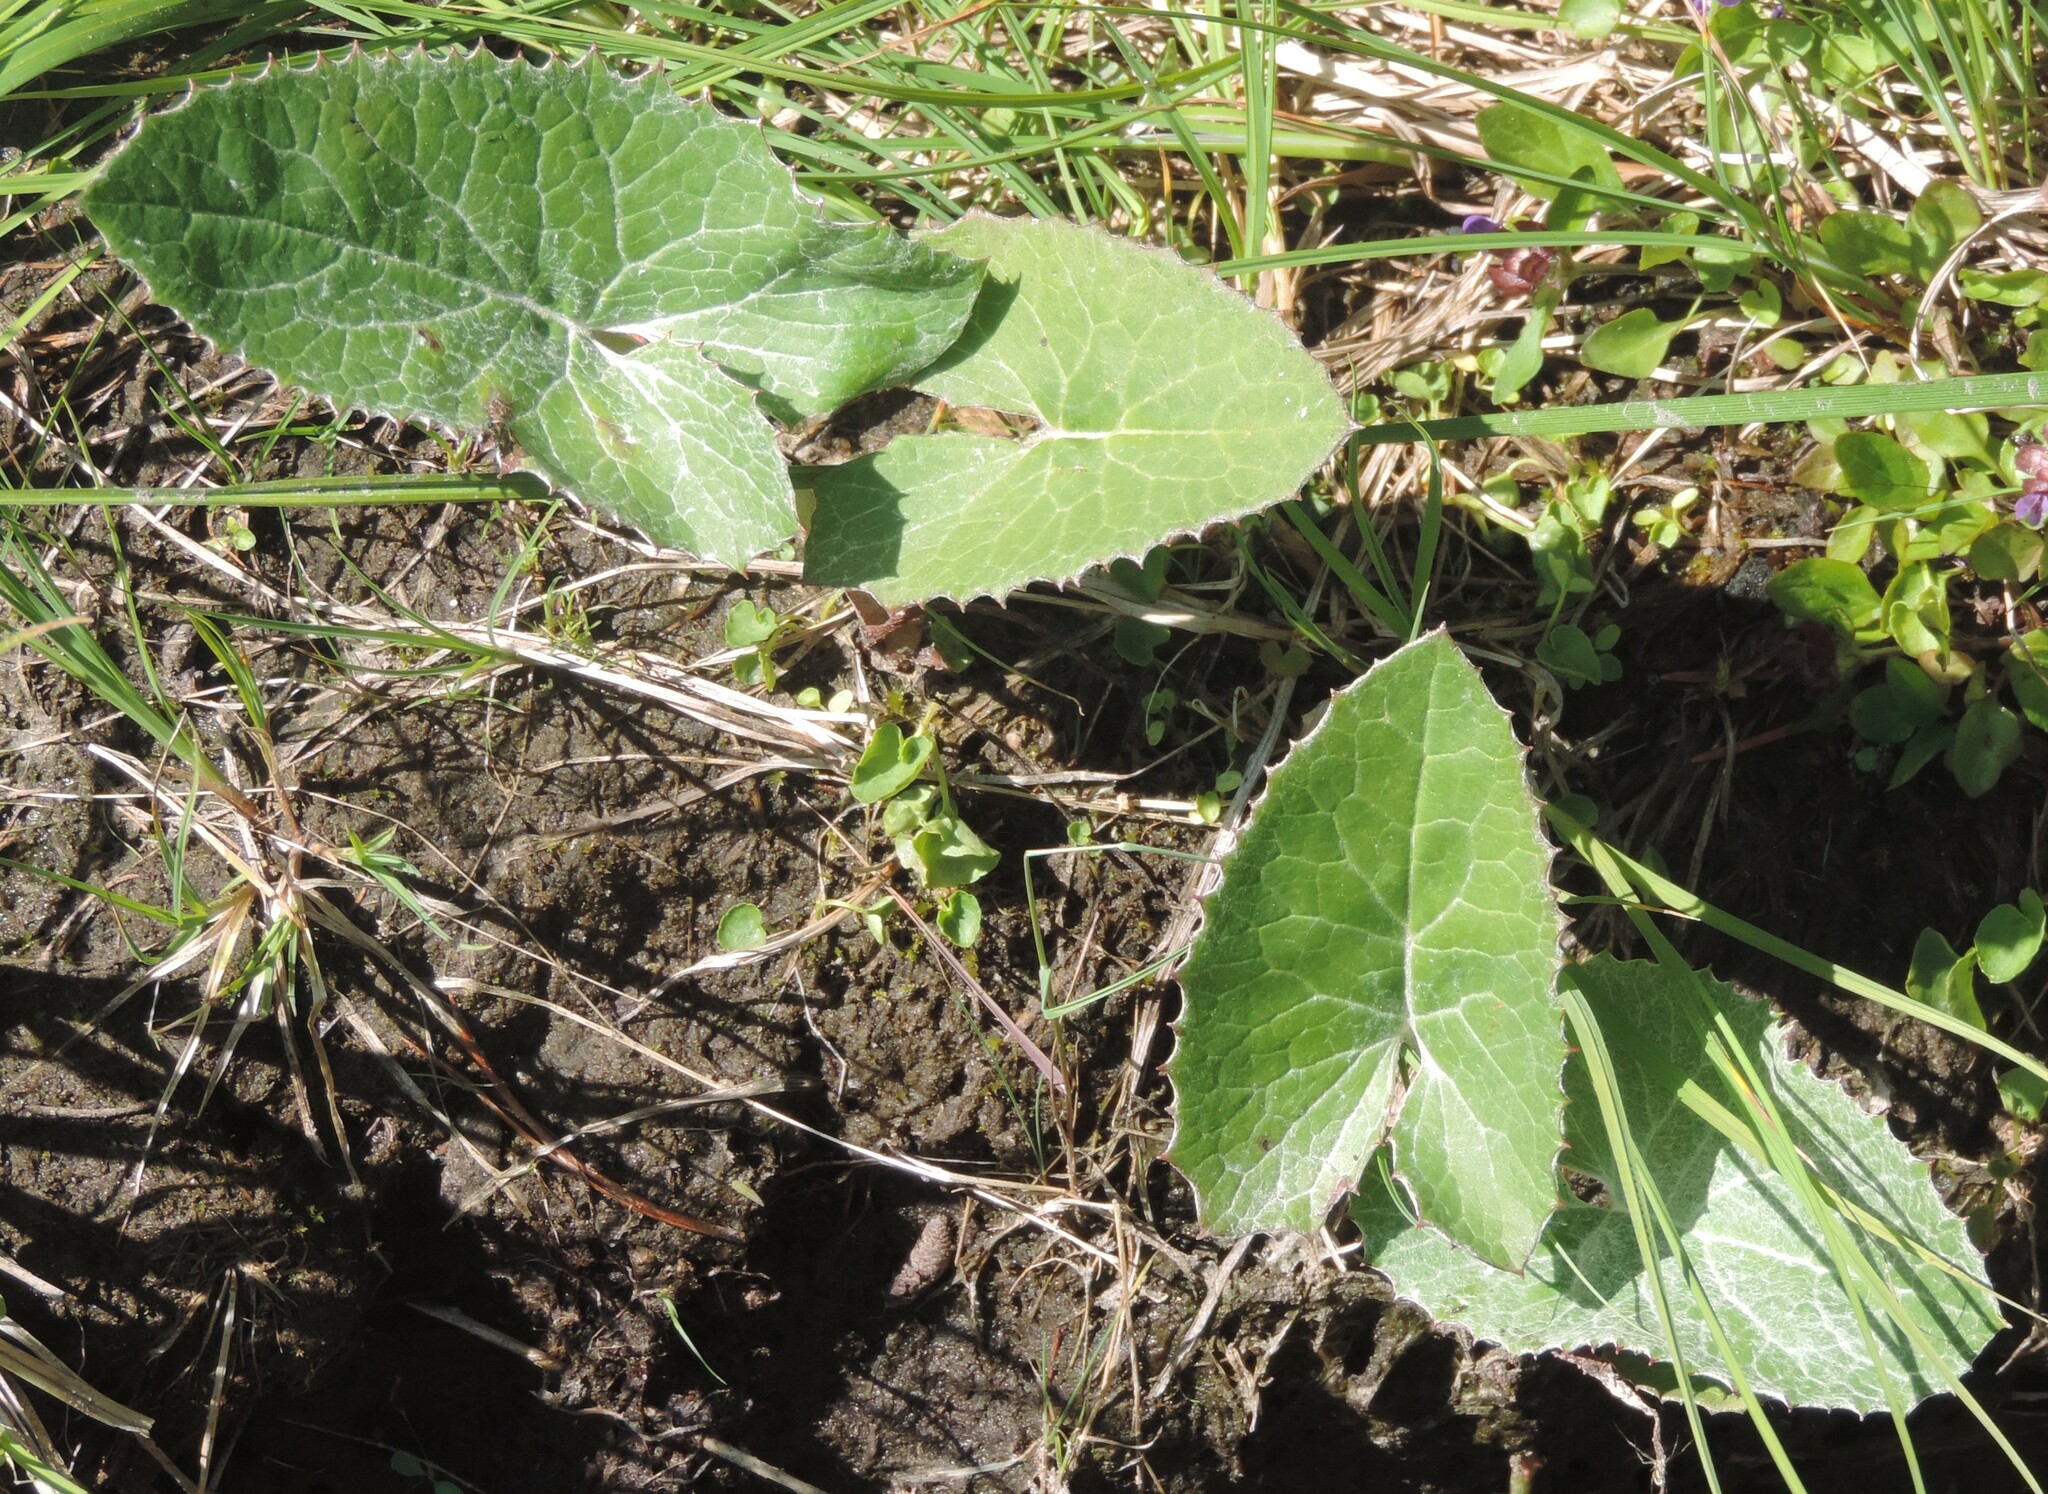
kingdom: Plantae
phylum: Tracheophyta
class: Magnoliopsida
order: Asterales
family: Asteraceae
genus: Petasites
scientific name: Petasites frigidus
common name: Arctic butterbur
